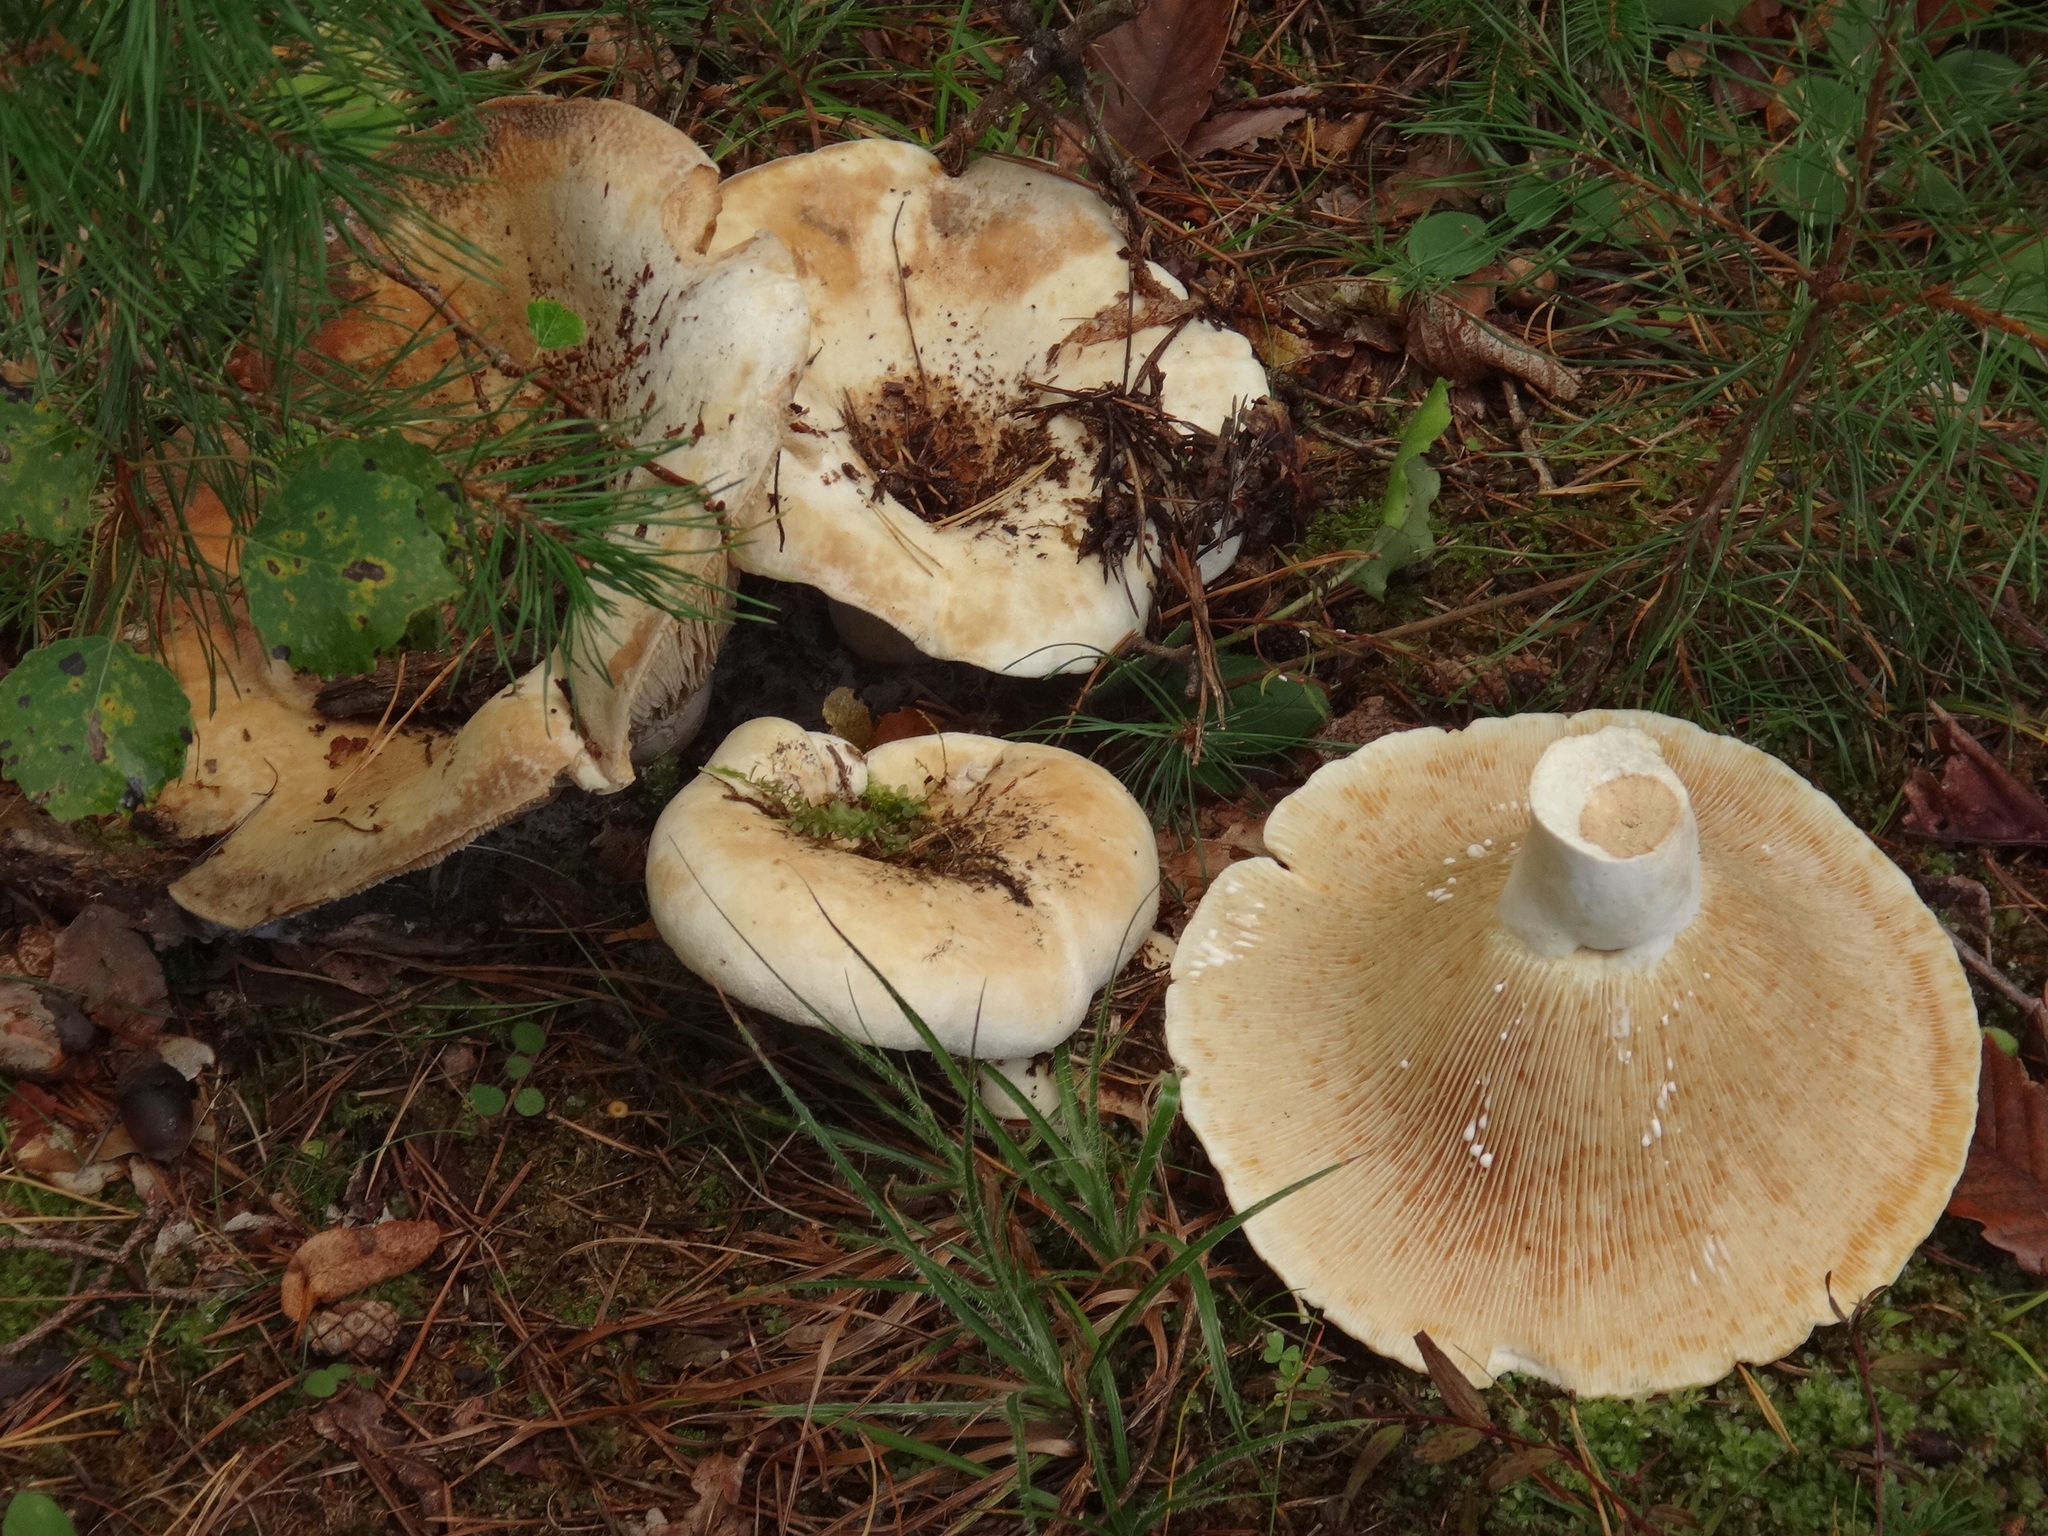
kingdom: Fungi
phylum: Basidiomycota
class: Agaricomycetes
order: Russulales
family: Russulaceae
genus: Lactifluus
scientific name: Lactifluus vellereus
